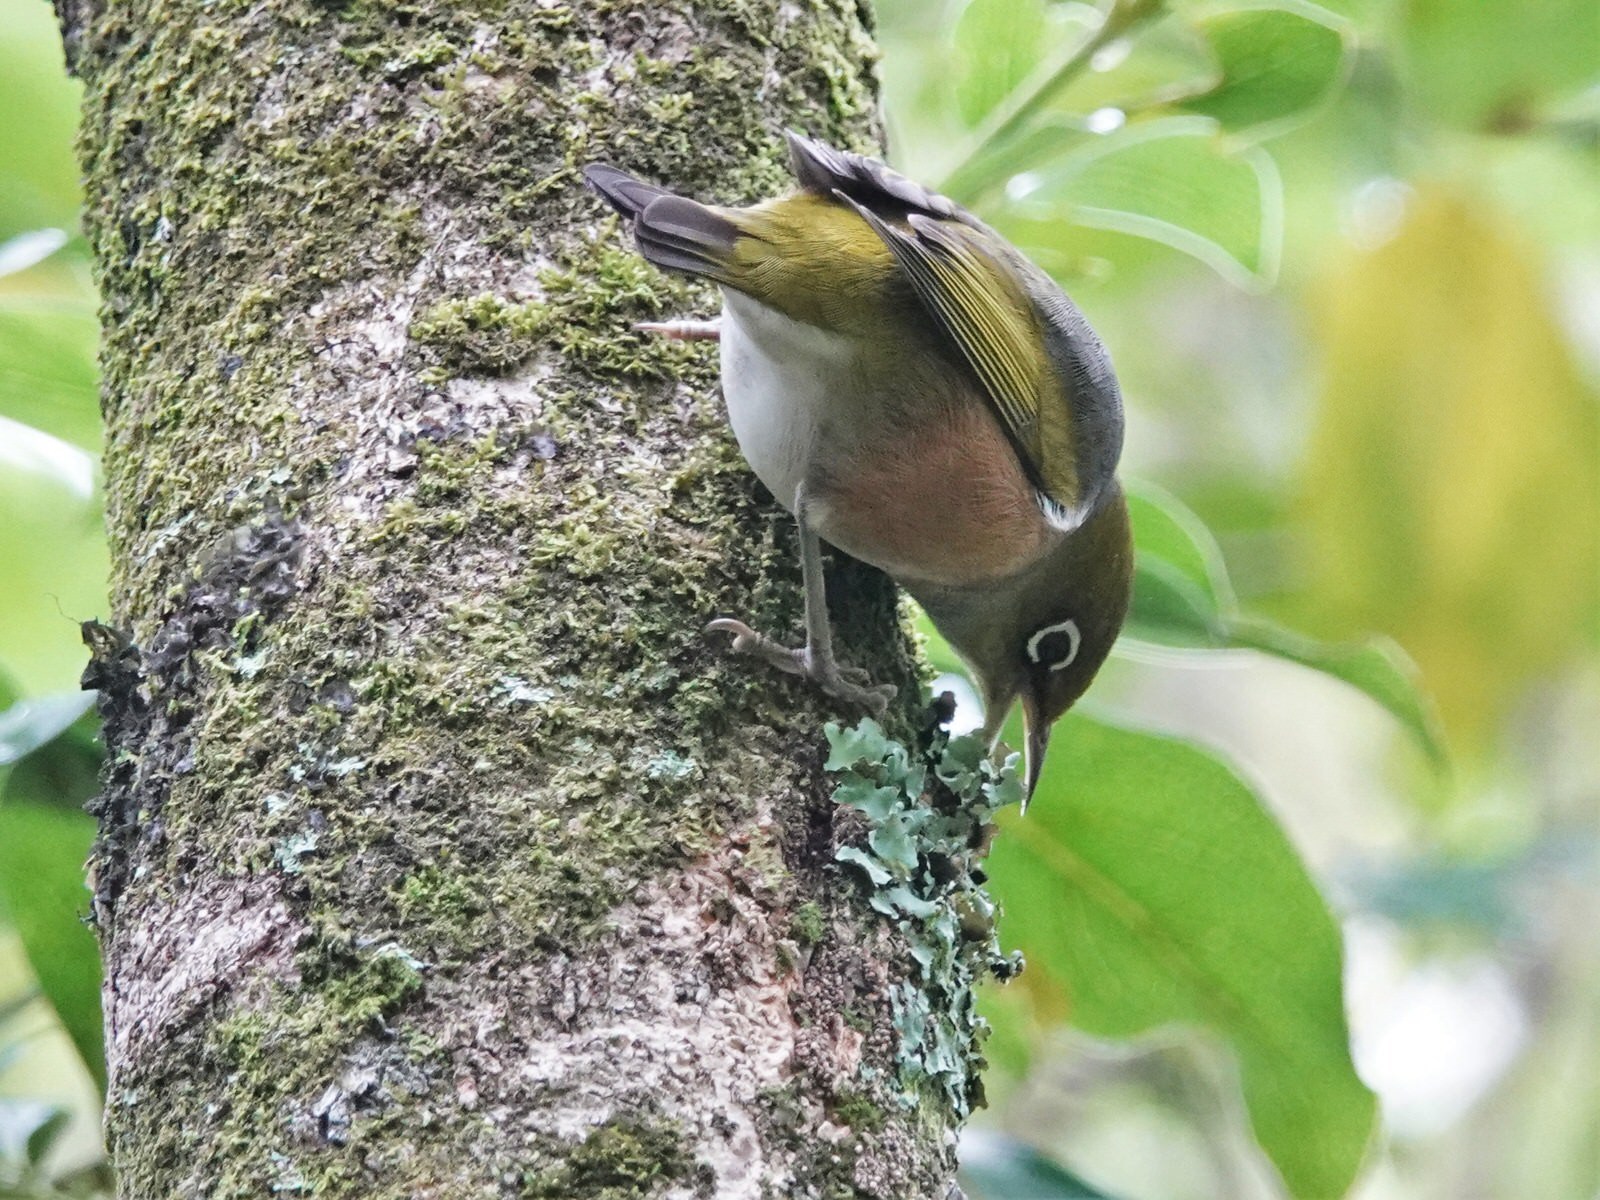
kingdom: Animalia
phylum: Chordata
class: Aves
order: Passeriformes
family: Zosteropidae
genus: Zosterops
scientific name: Zosterops lateralis
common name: Silvereye
